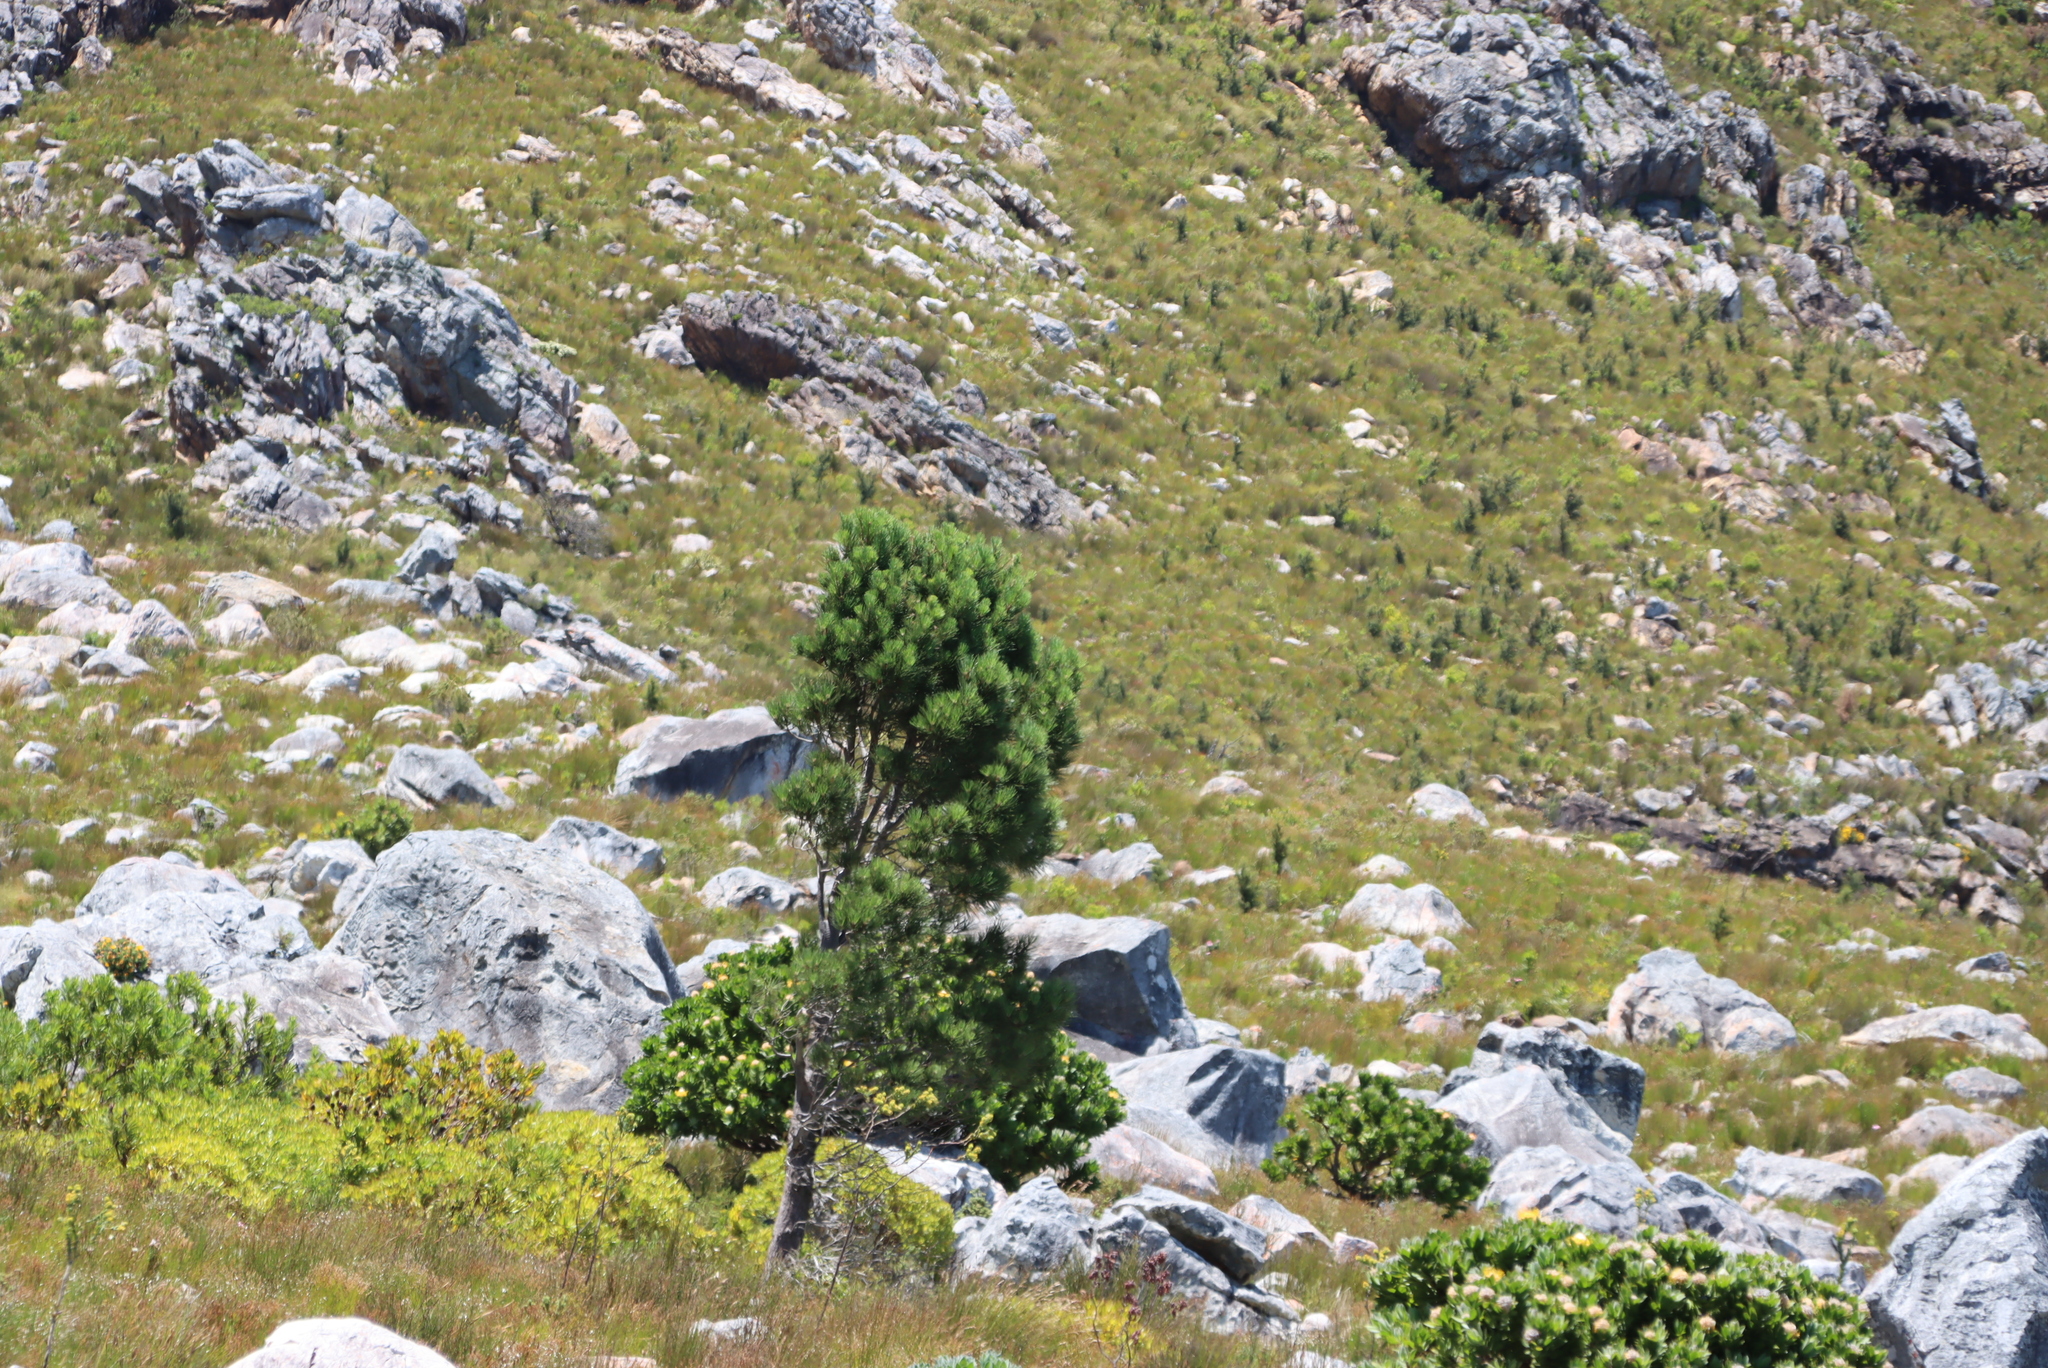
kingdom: Plantae
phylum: Tracheophyta
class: Magnoliopsida
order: Proteales
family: Proteaceae
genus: Hakea
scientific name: Hakea sericea
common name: Needle bush
